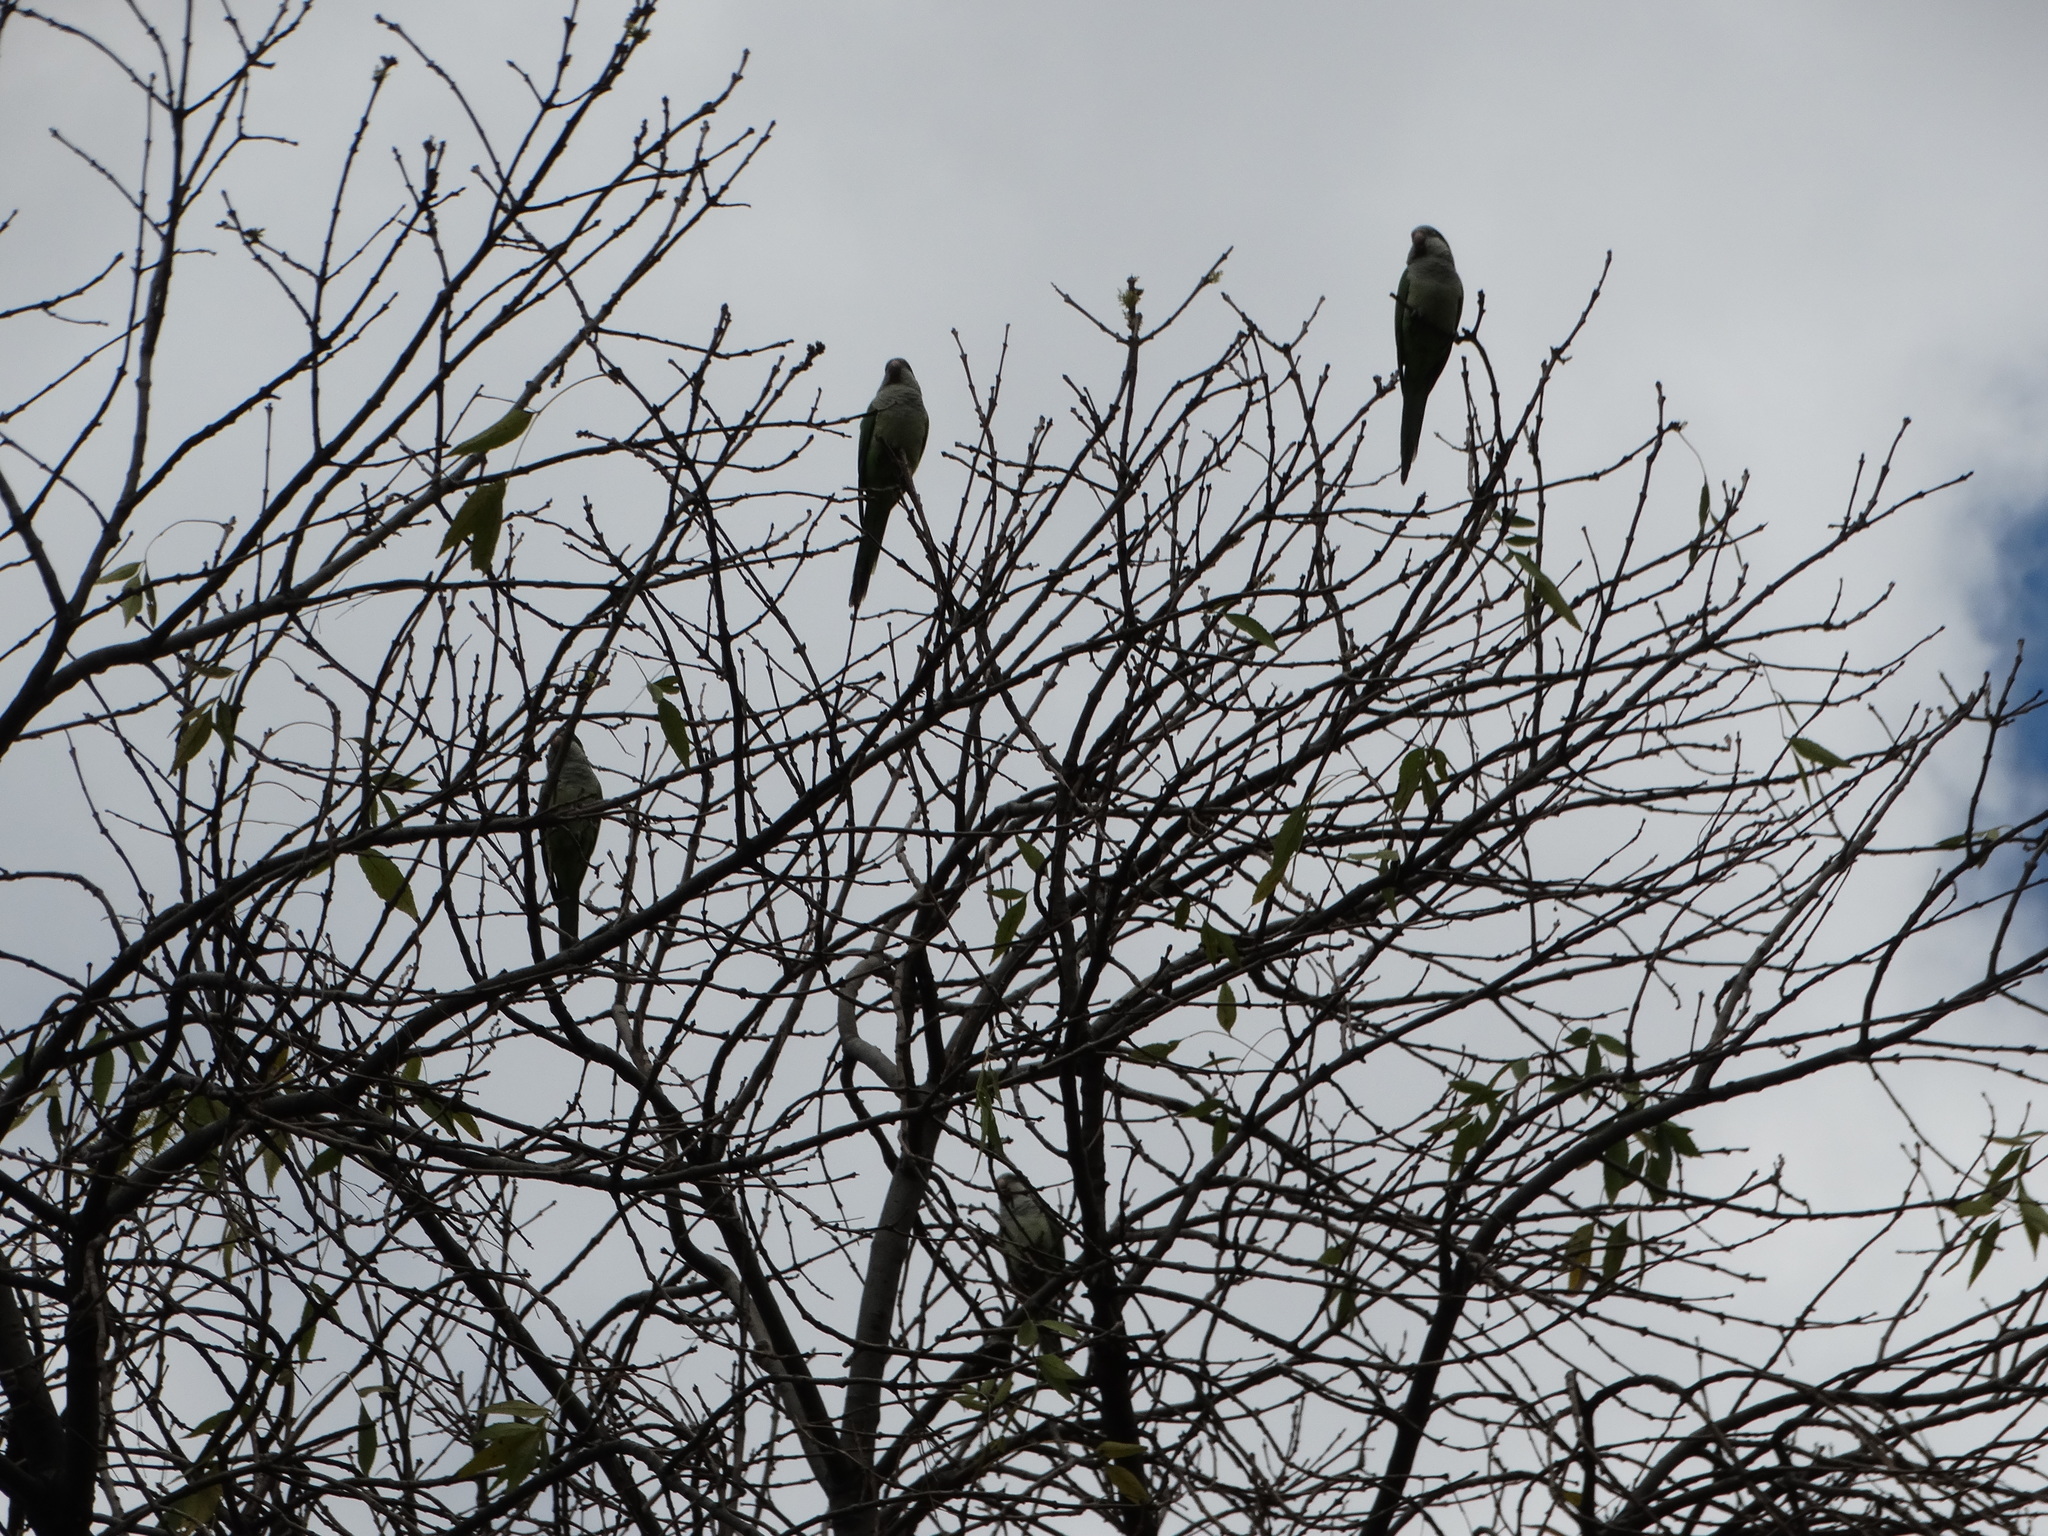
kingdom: Animalia
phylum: Chordata
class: Aves
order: Psittaciformes
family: Psittacidae
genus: Myiopsitta
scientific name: Myiopsitta monachus
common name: Monk parakeet
